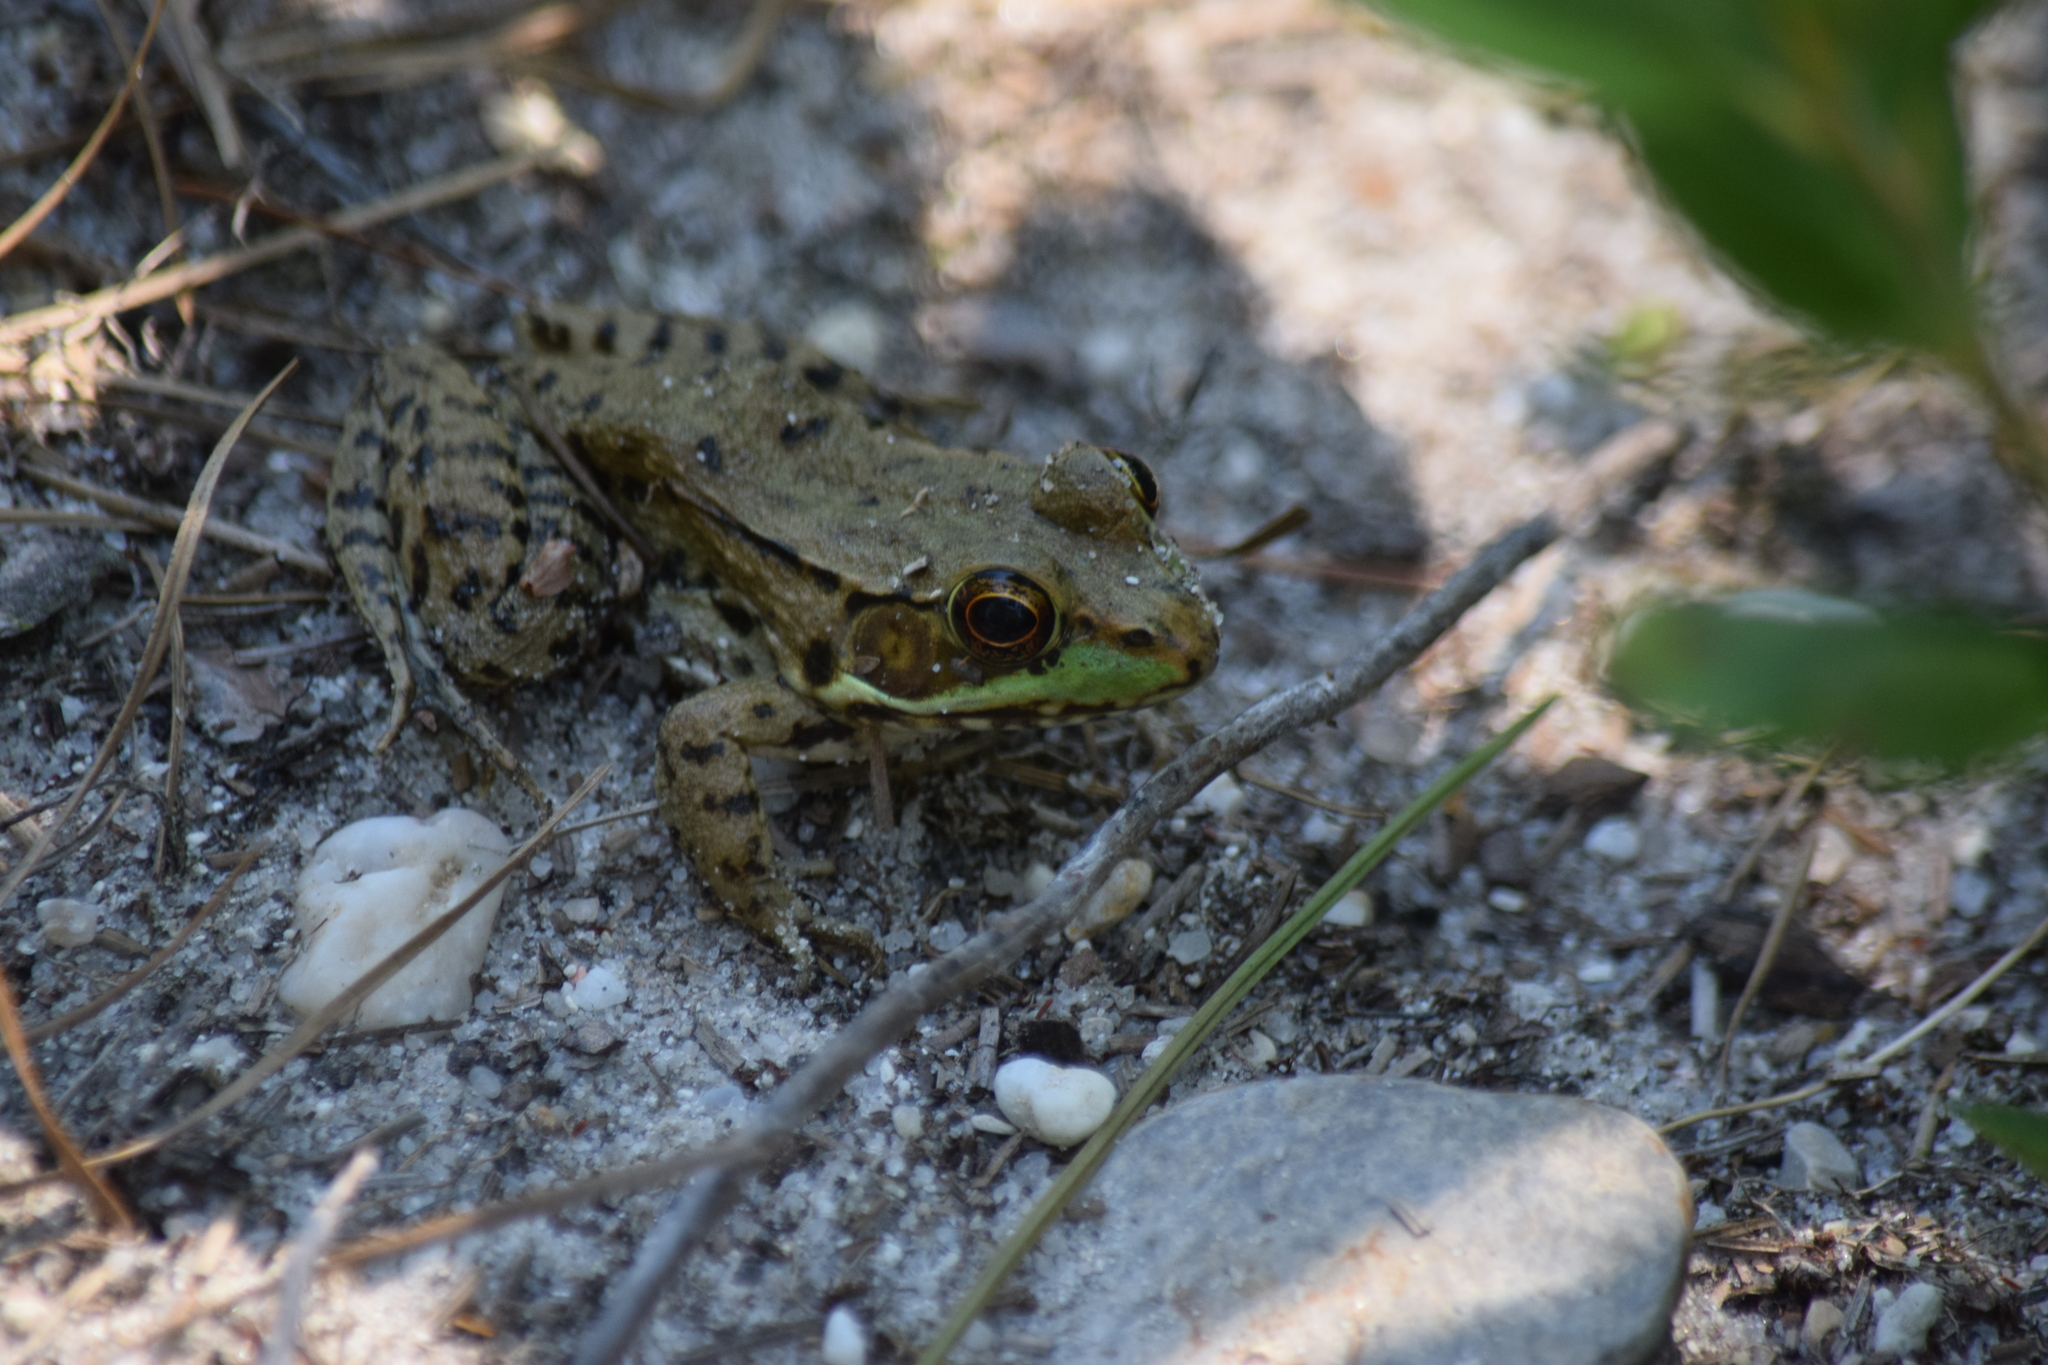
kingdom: Animalia
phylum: Chordata
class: Amphibia
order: Anura
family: Ranidae
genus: Lithobates
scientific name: Lithobates clamitans
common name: Green frog
